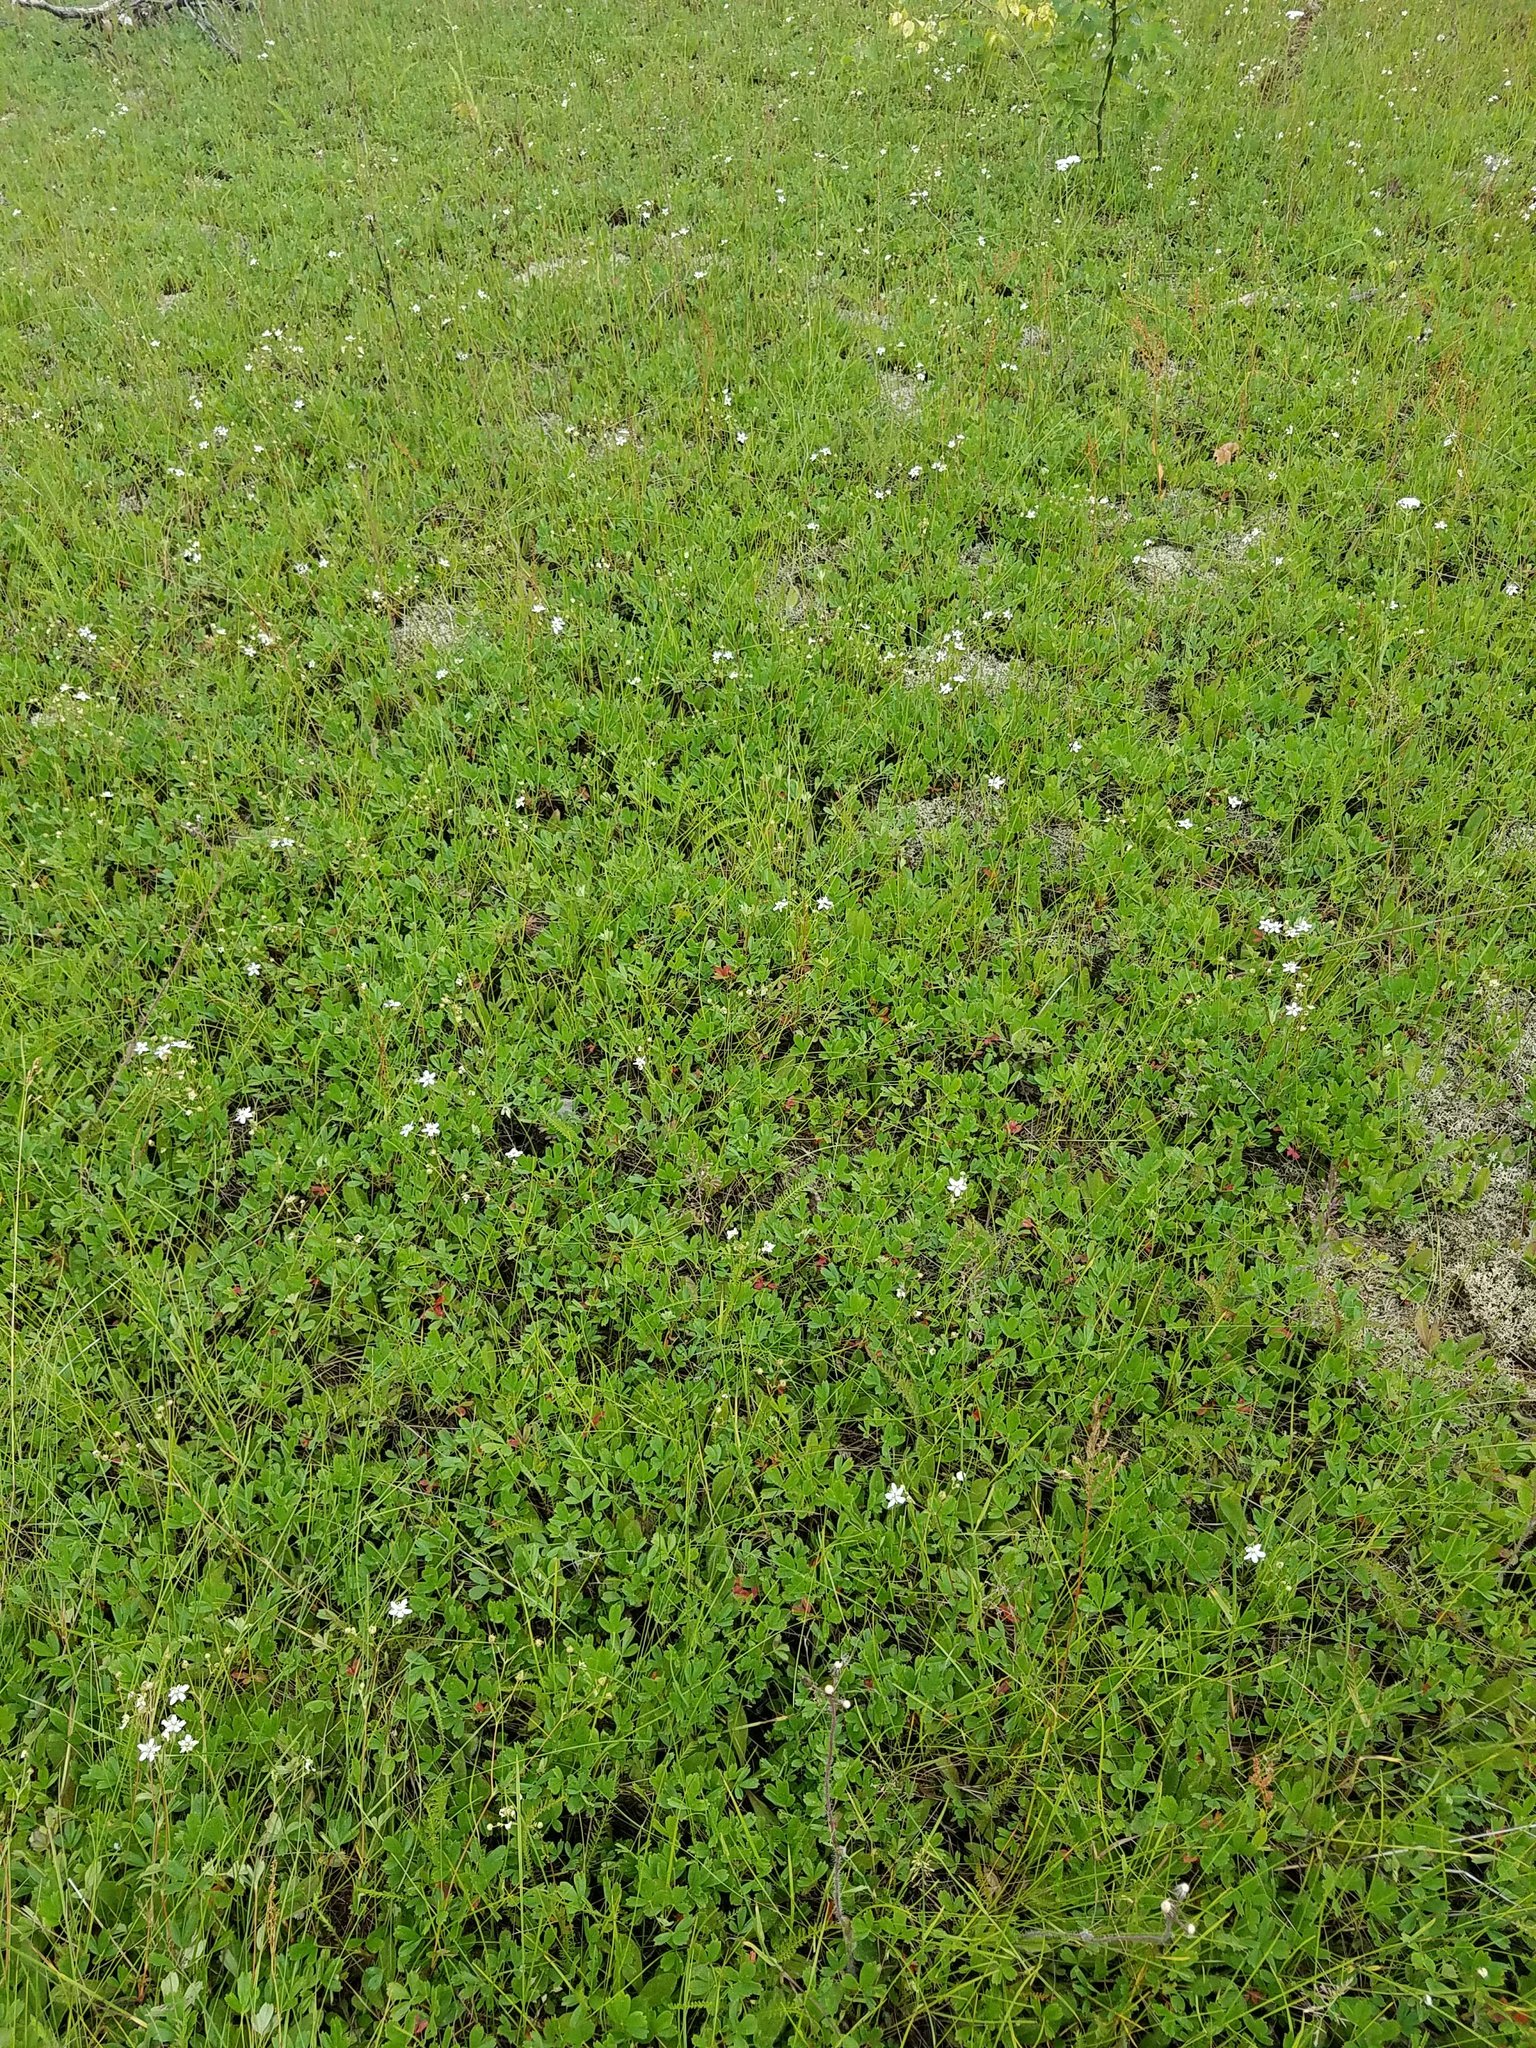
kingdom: Plantae
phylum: Tracheophyta
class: Magnoliopsida
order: Rosales
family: Rosaceae
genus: Sibbaldia
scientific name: Sibbaldia tridentata
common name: Three-toothed cinquefoil
